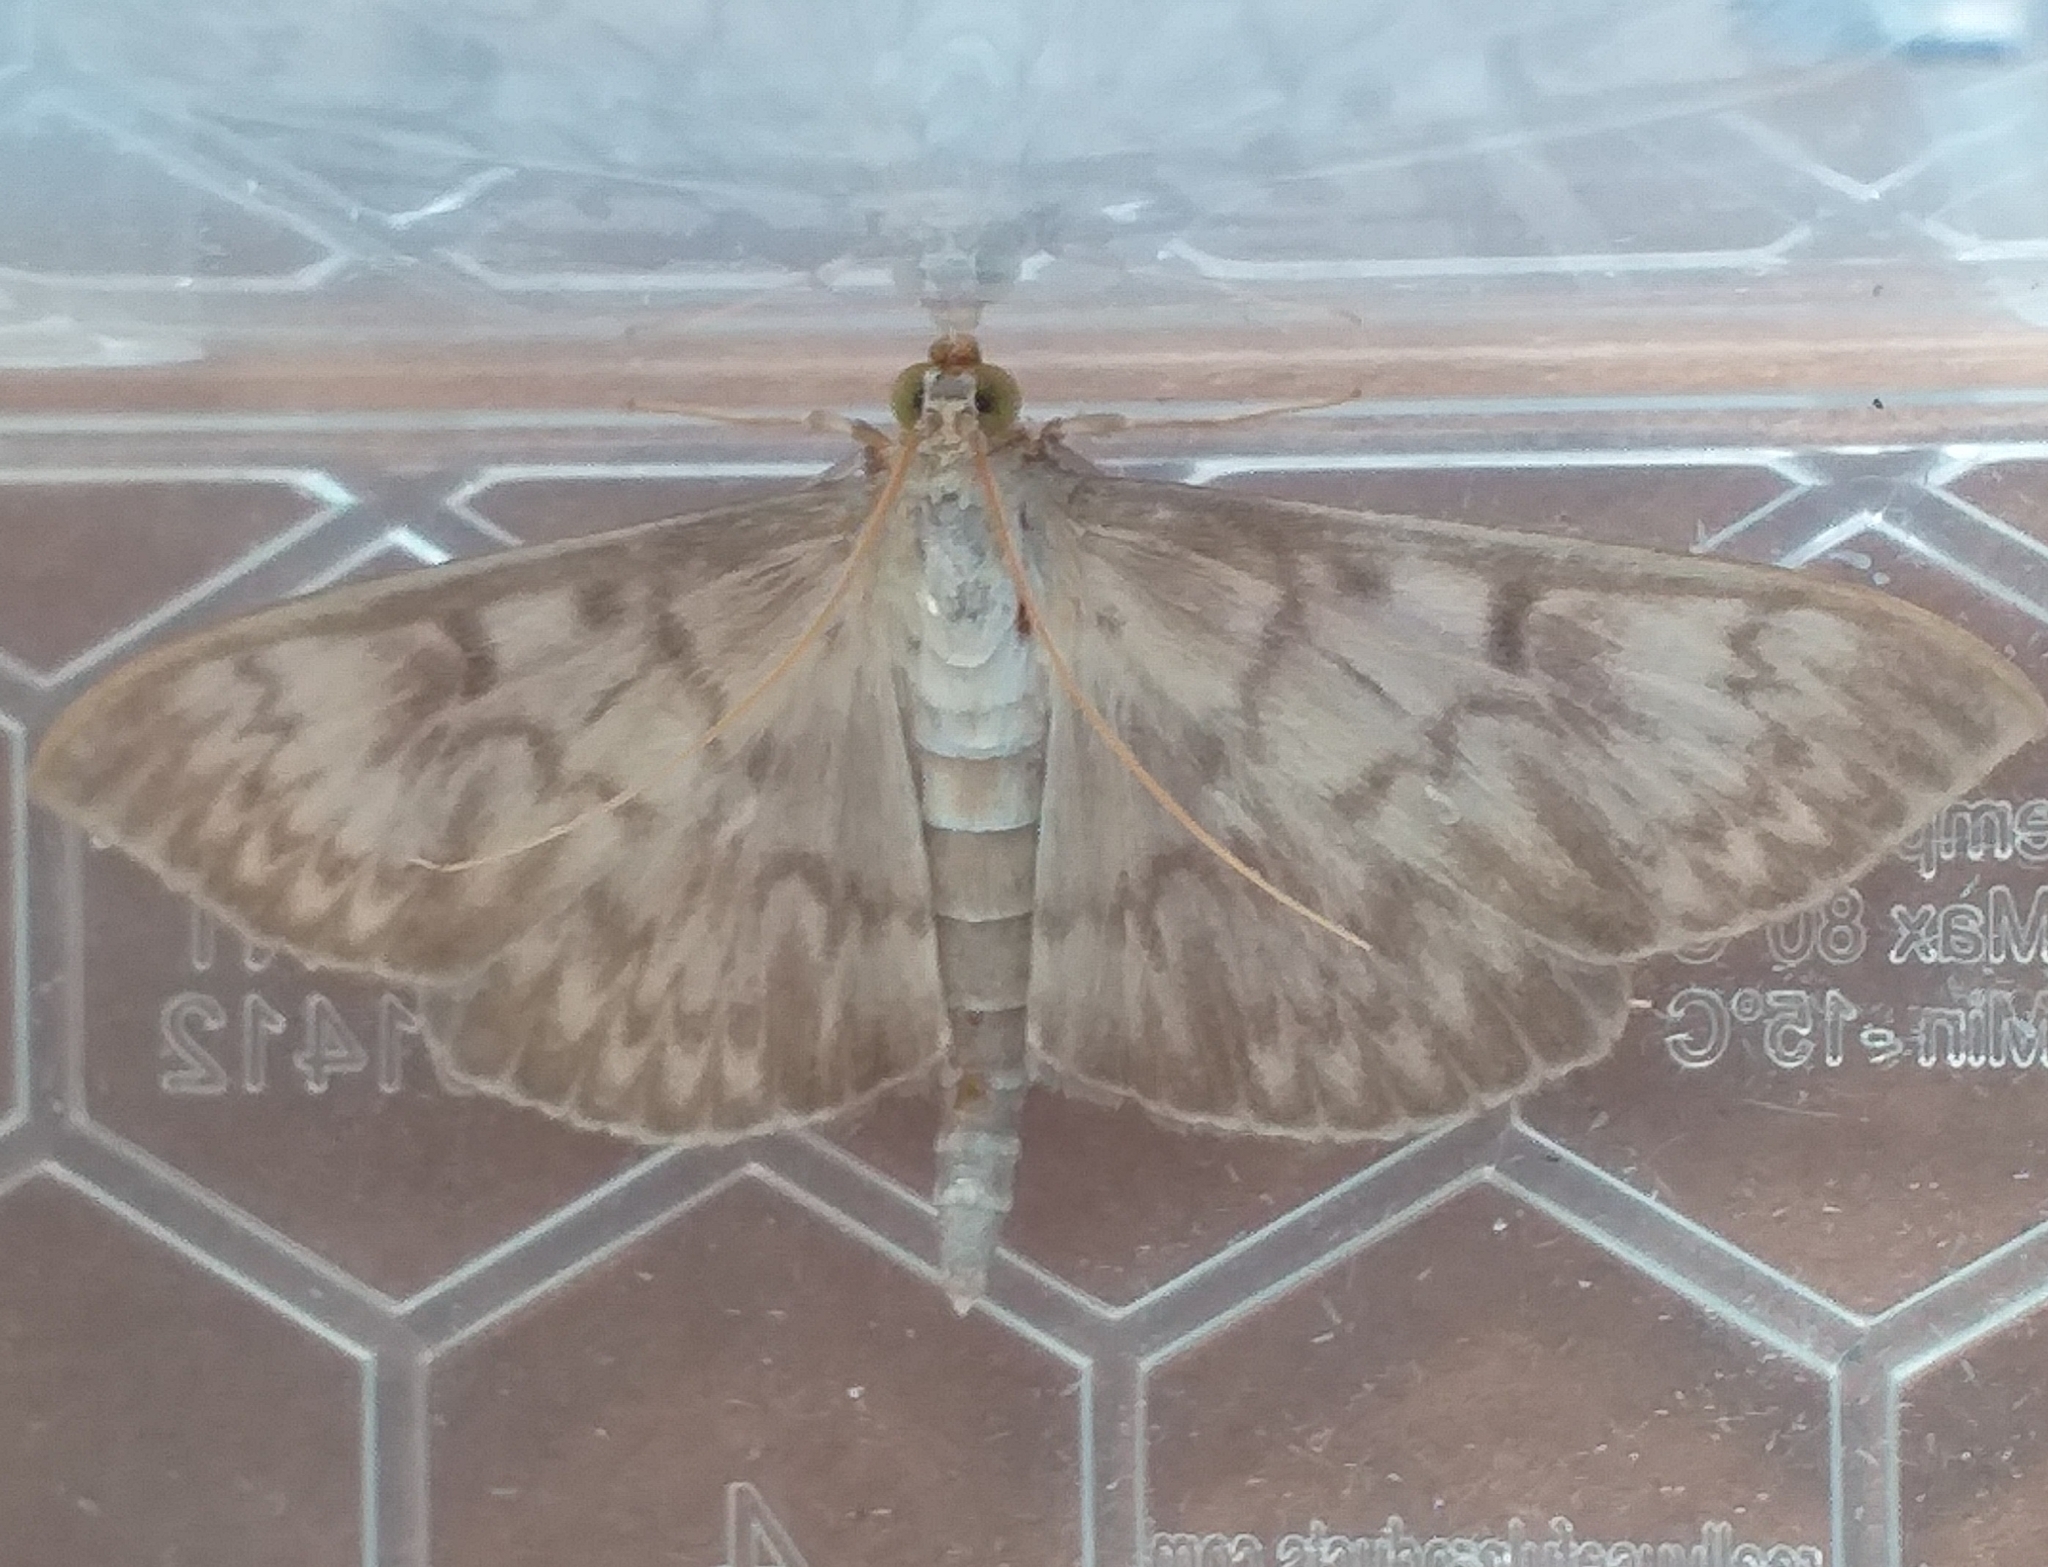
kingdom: Animalia
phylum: Arthropoda
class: Insecta
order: Lepidoptera
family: Crambidae
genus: Patania
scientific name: Patania ruralis
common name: Mother of pearl
